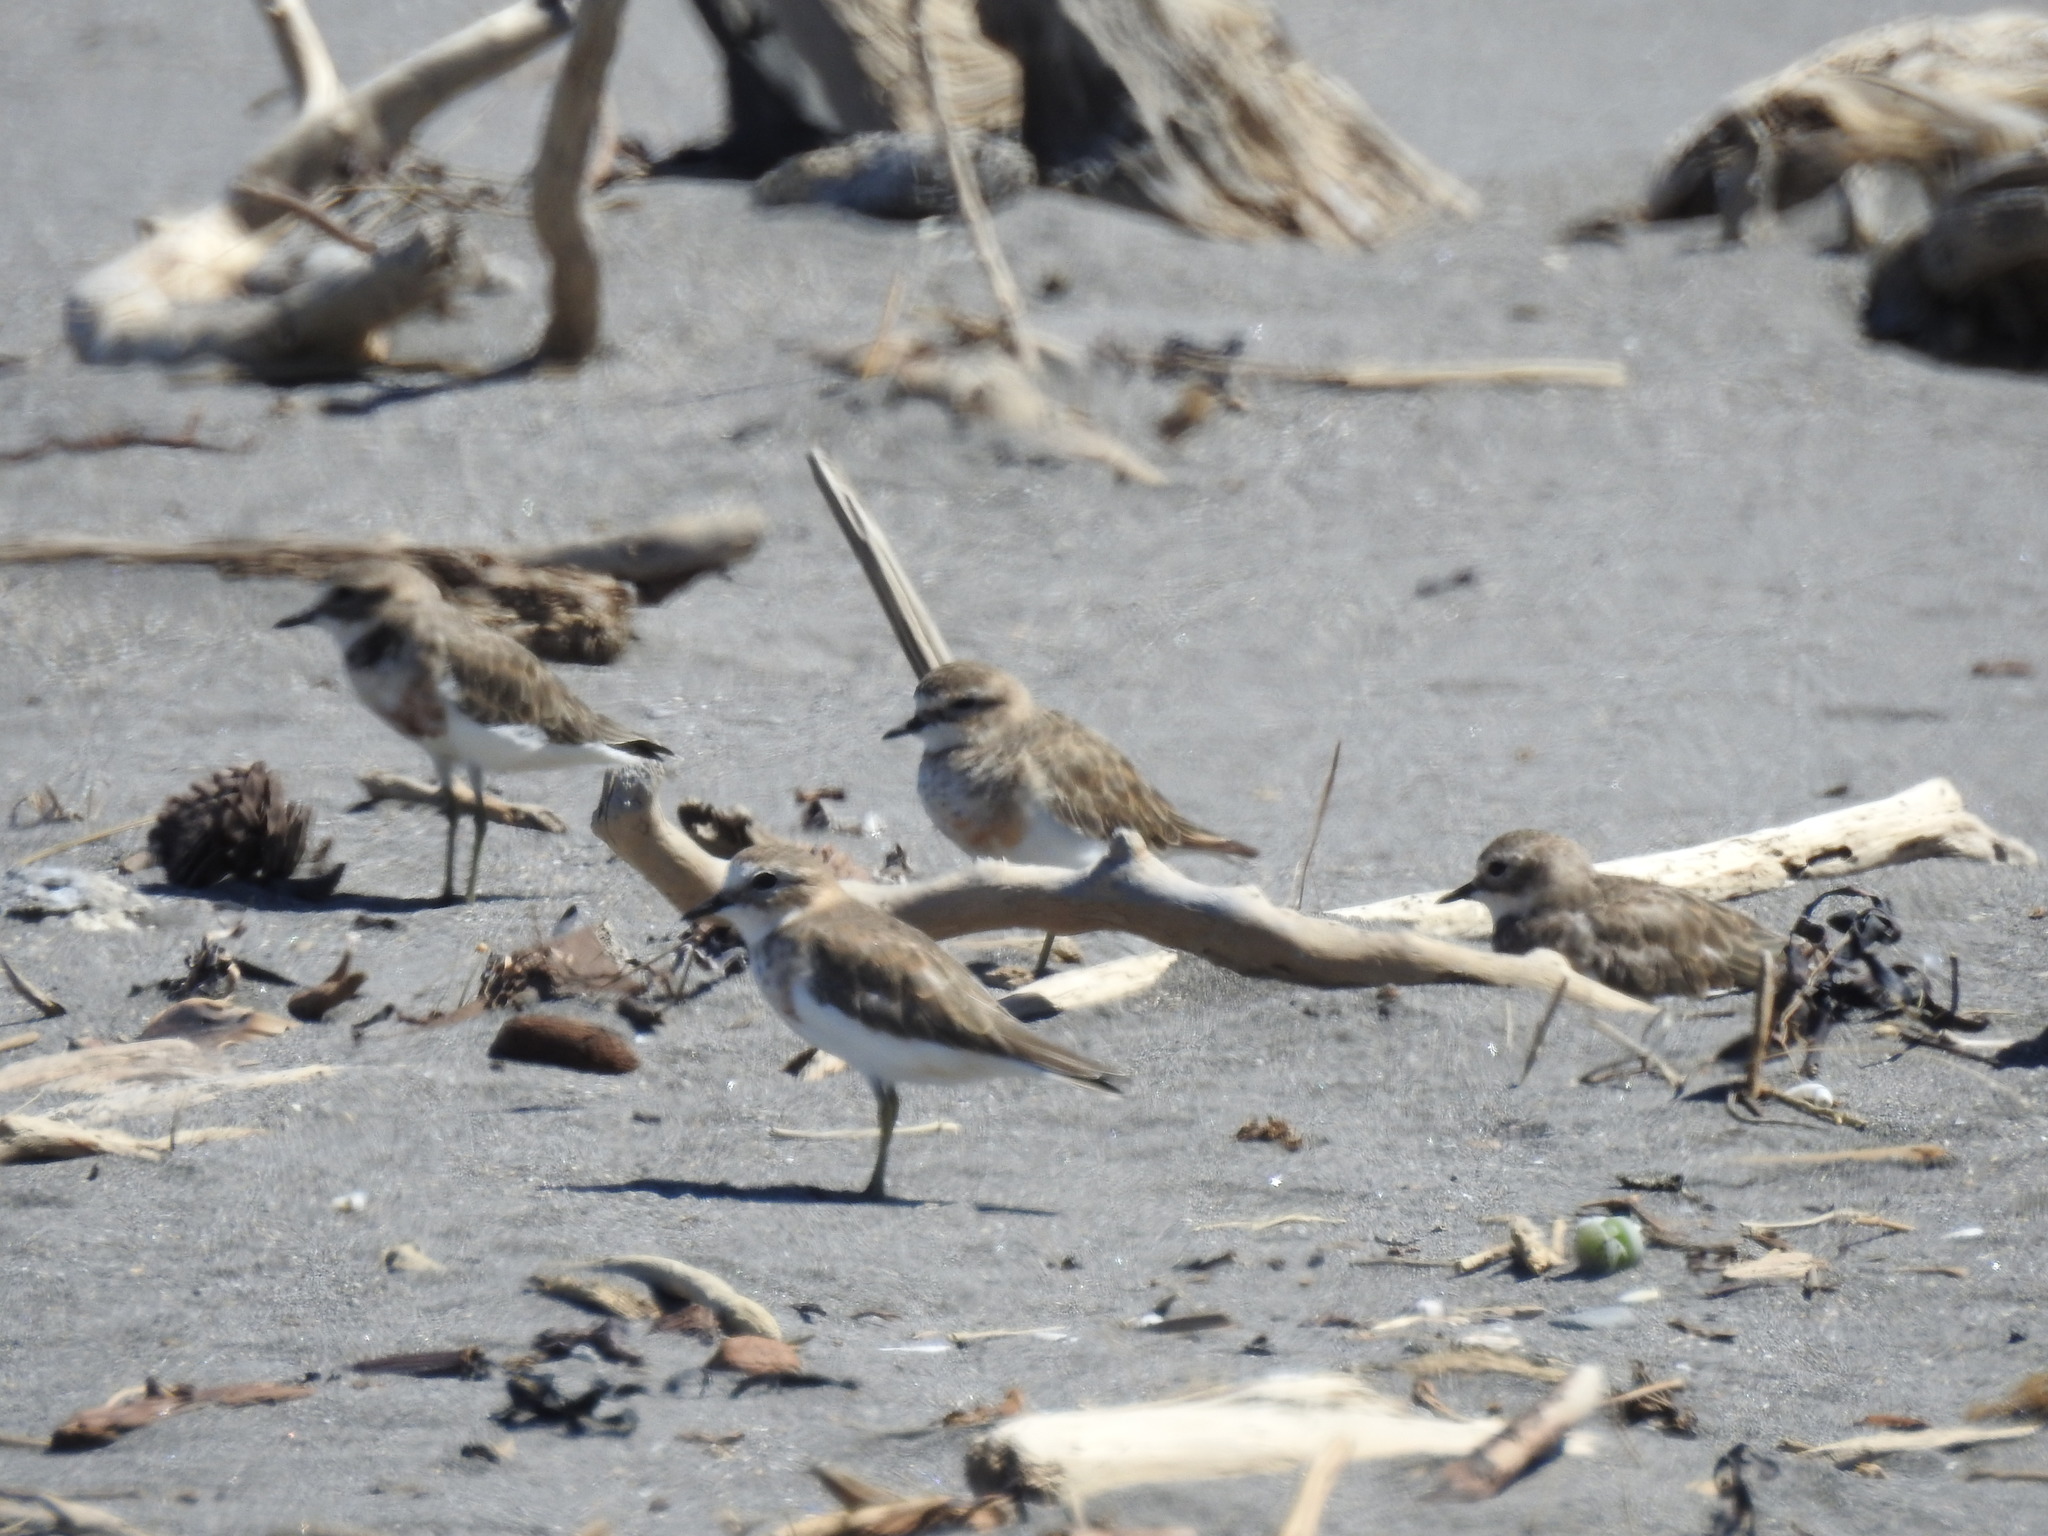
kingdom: Animalia
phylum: Chordata
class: Aves
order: Charadriiformes
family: Charadriidae
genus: Anarhynchus
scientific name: Anarhynchus
